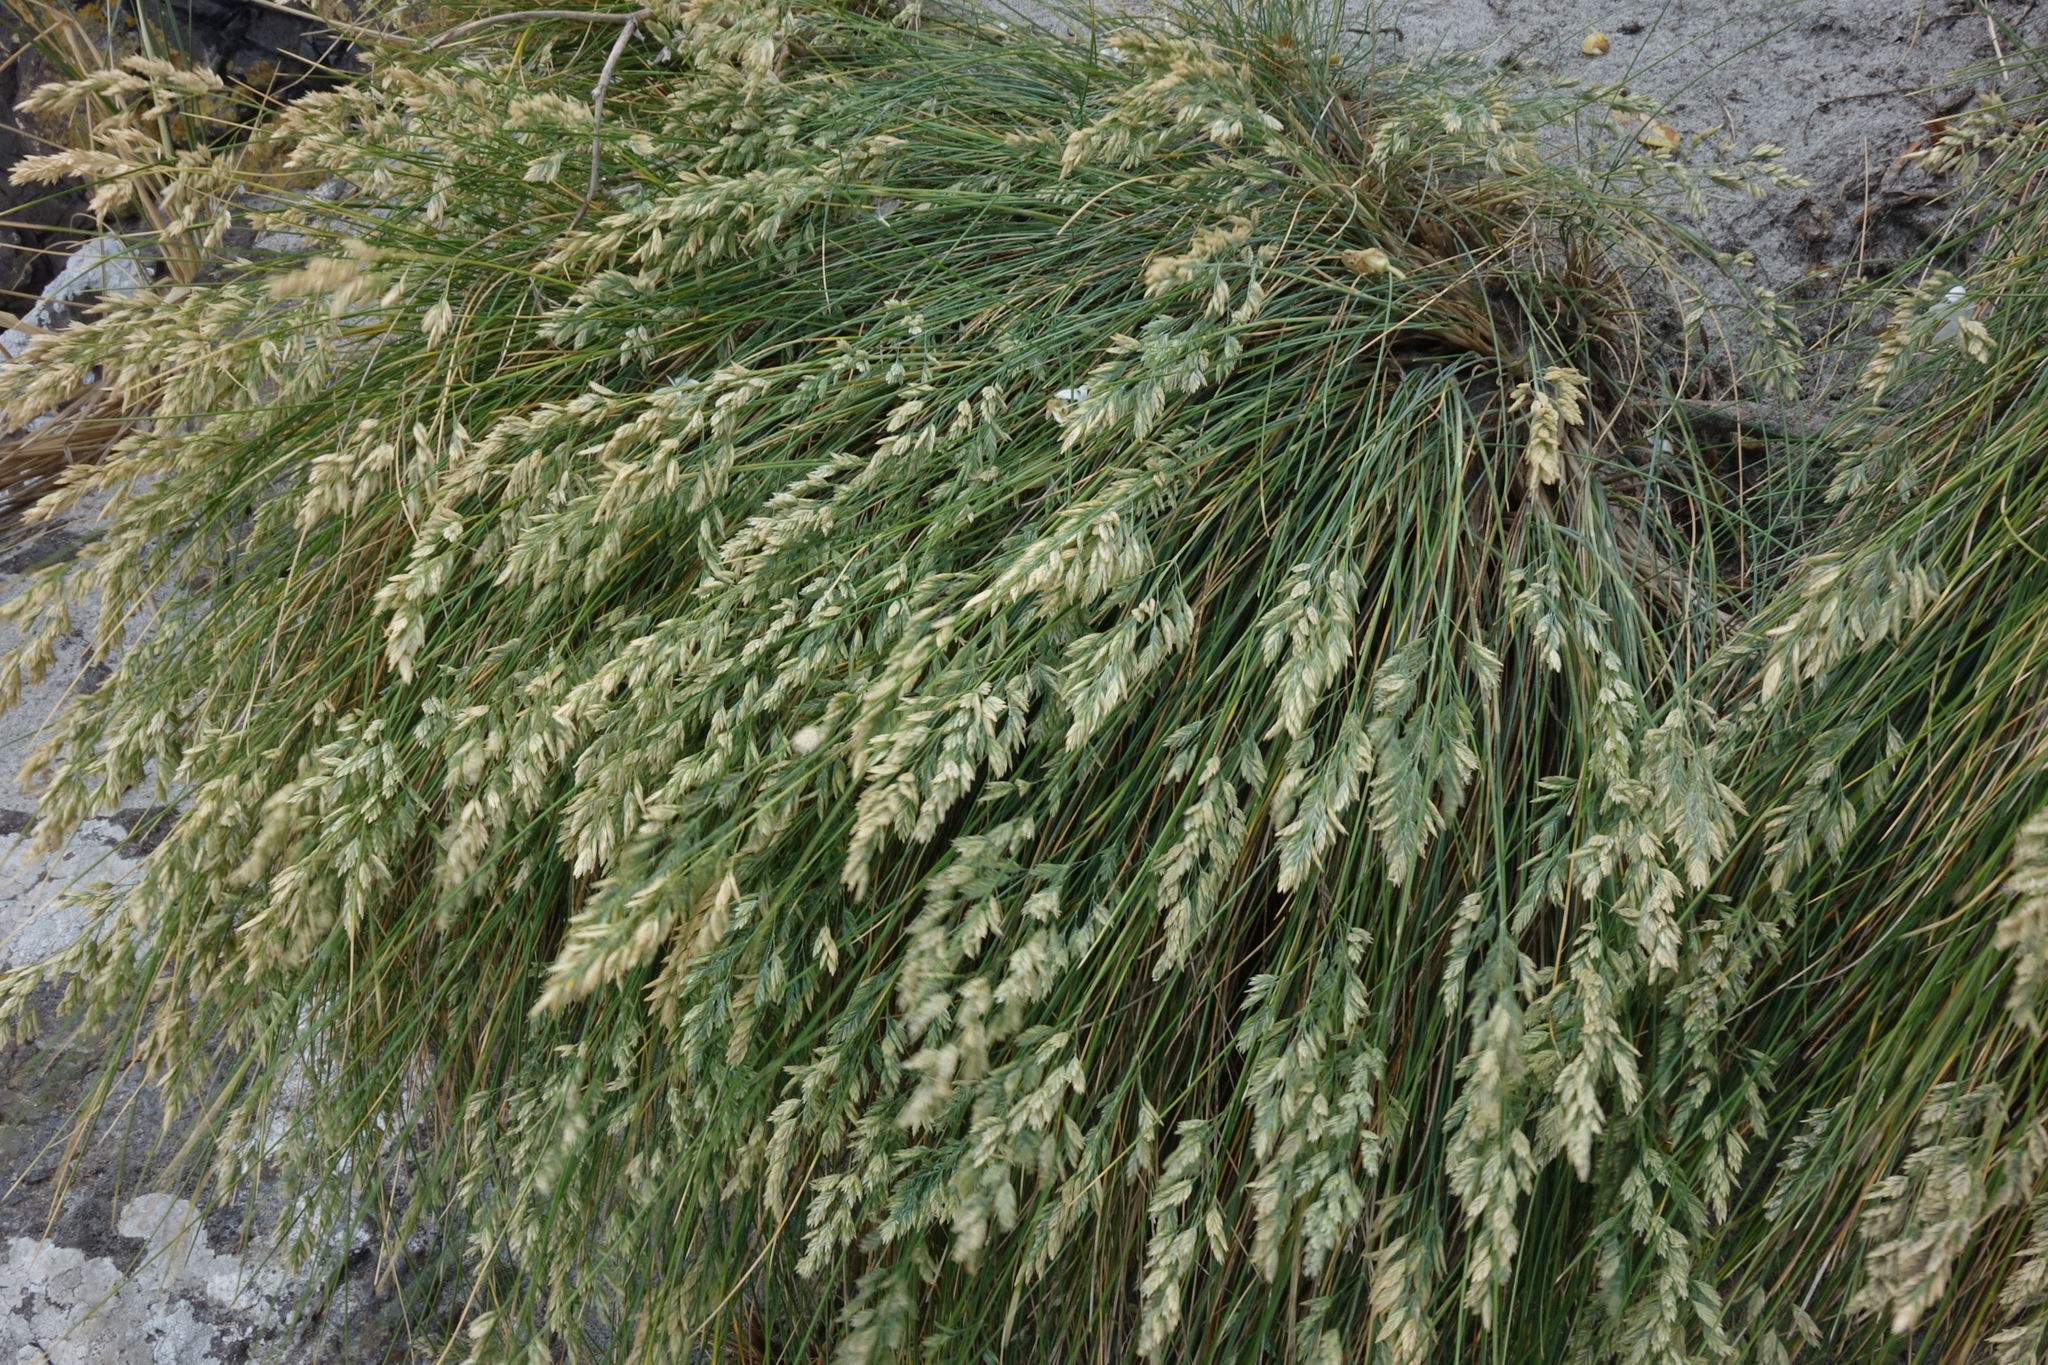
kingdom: Plantae
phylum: Tracheophyta
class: Liliopsida
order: Poales
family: Poaceae
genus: Poa
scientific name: Poa astonii
